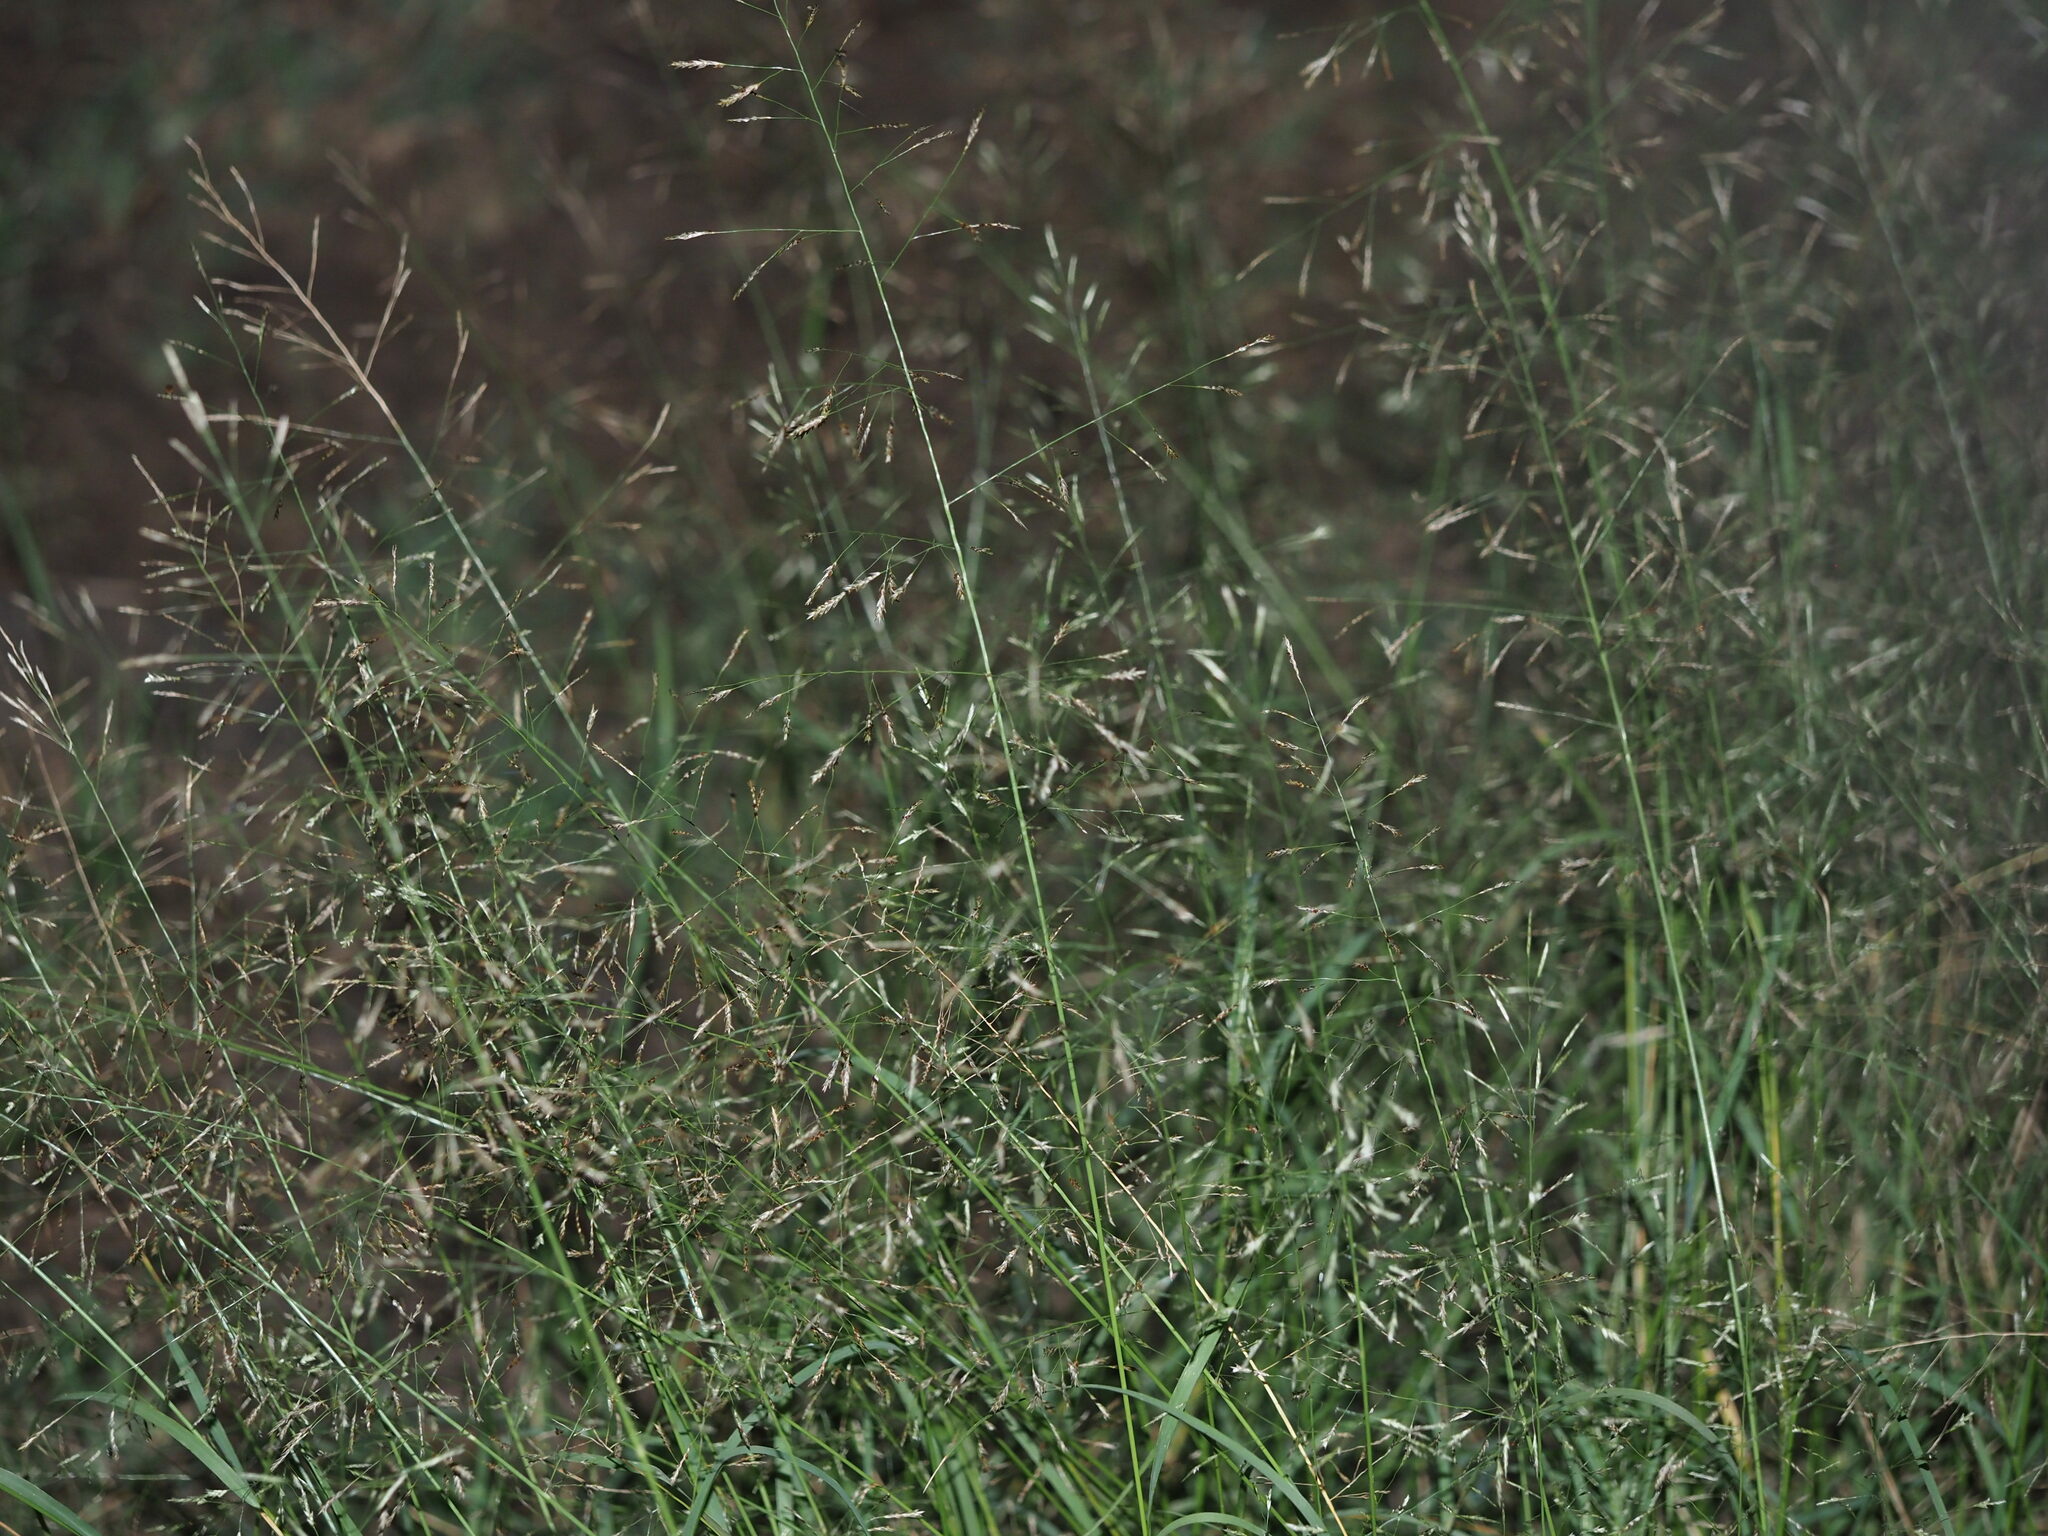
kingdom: Plantae
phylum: Tracheophyta
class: Liliopsida
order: Poales
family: Poaceae
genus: Eragrostis
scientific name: Eragrostis tenuifolia
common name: Elastic grass
